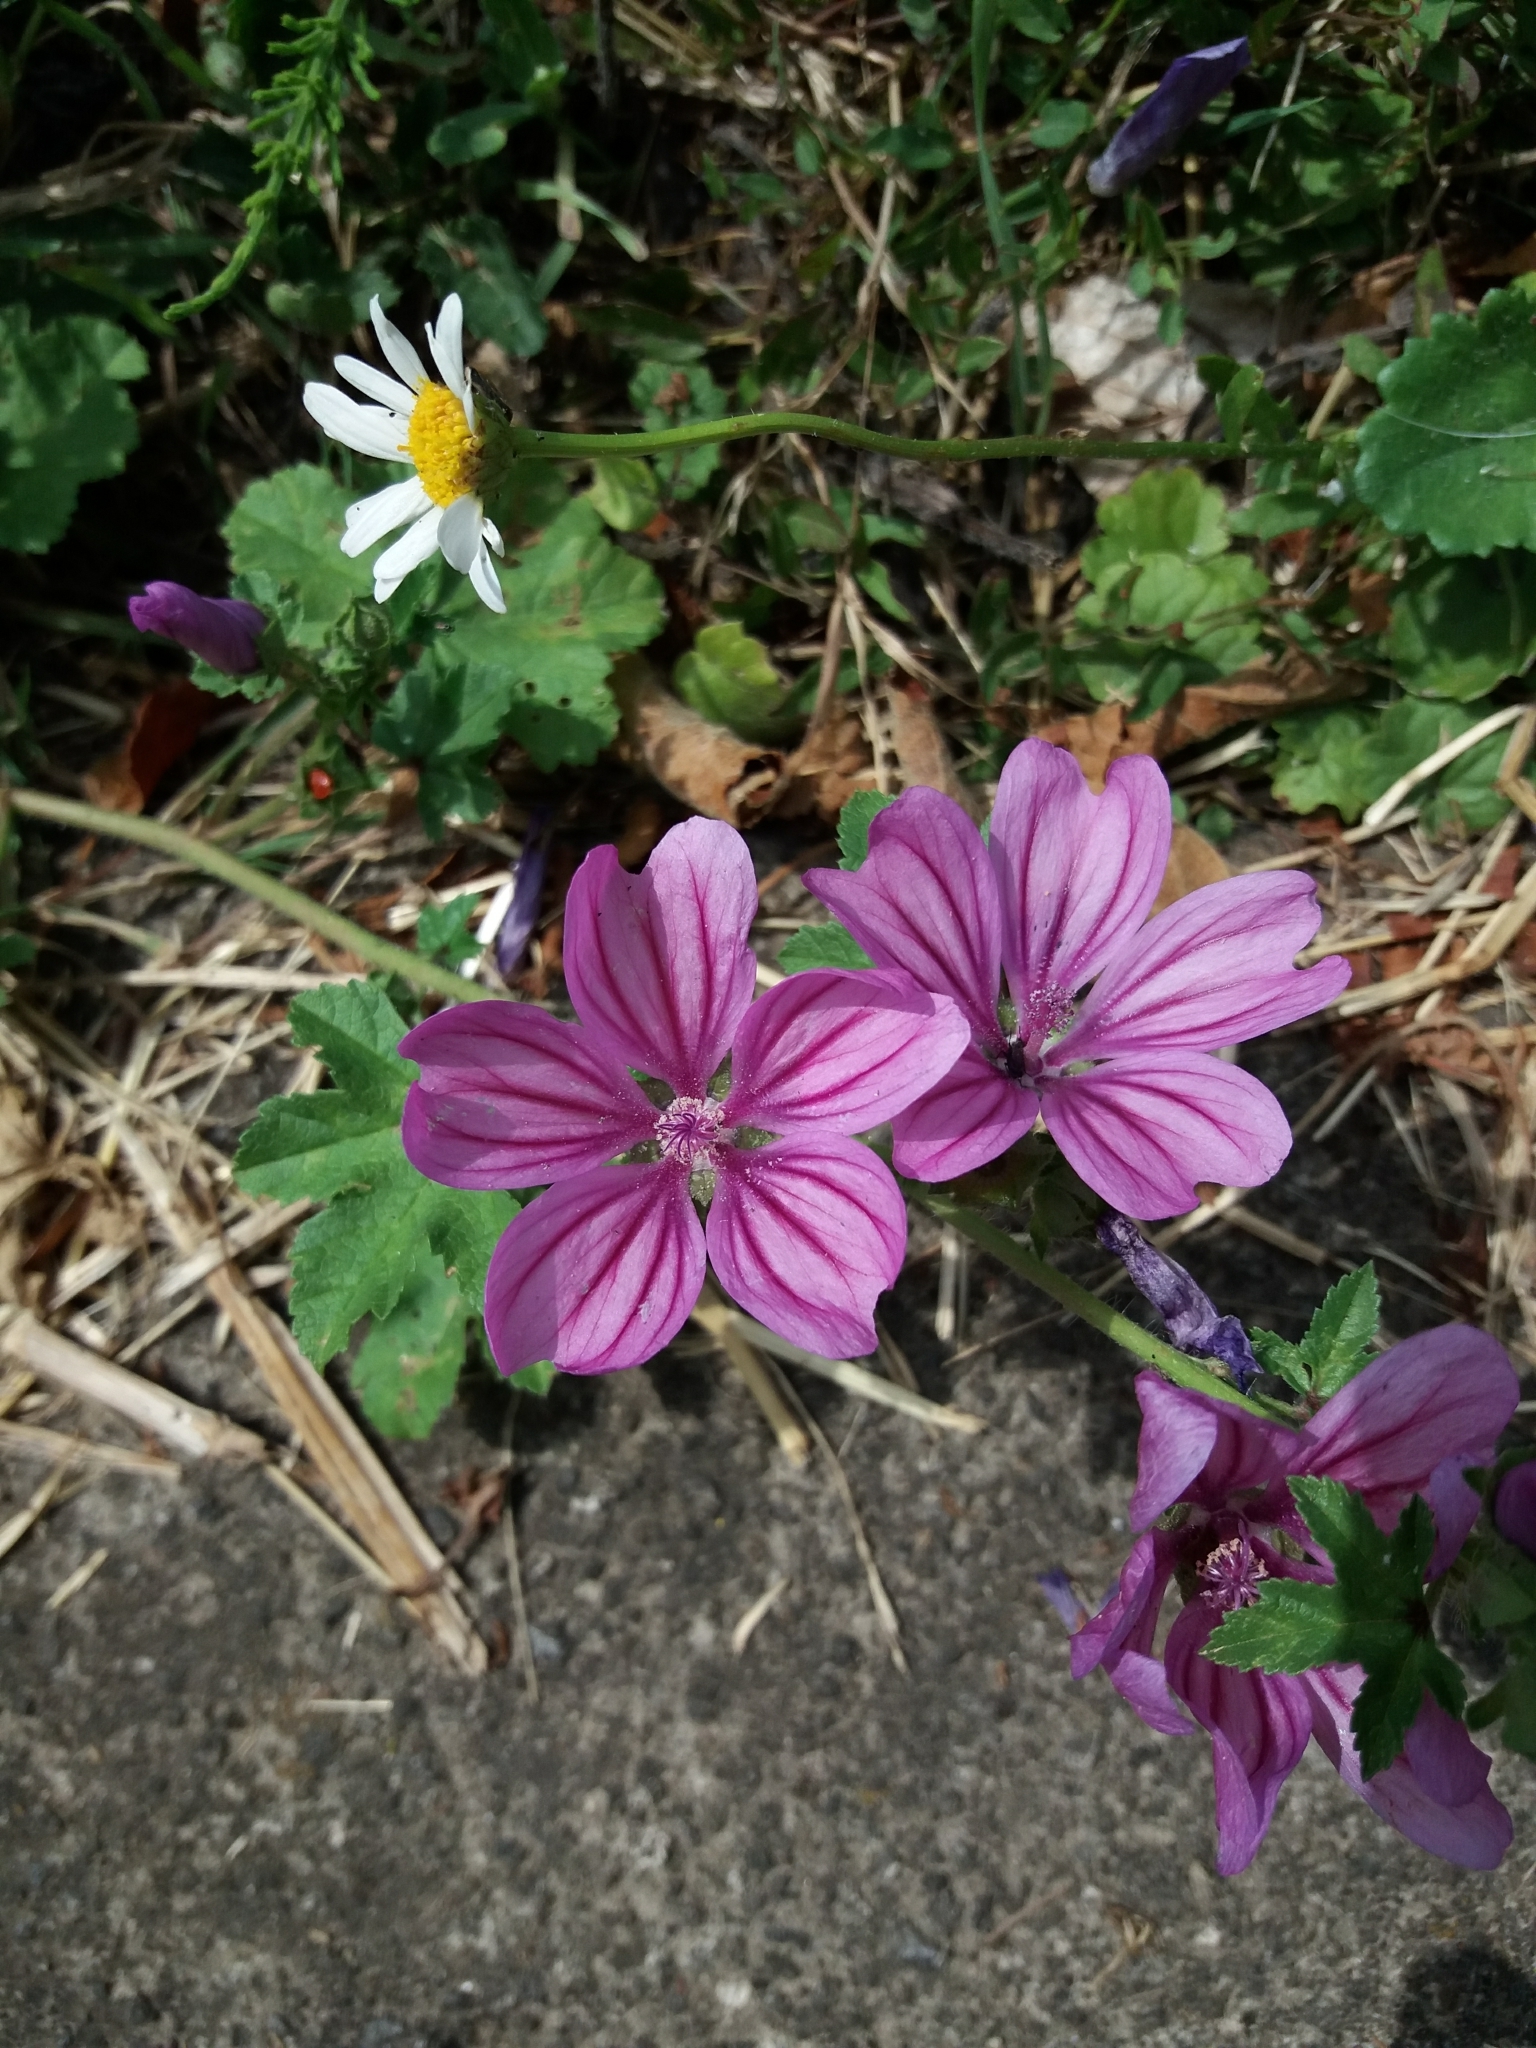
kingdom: Plantae
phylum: Tracheophyta
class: Magnoliopsida
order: Malvales
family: Malvaceae
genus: Malva
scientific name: Malva sylvestris
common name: Common mallow
